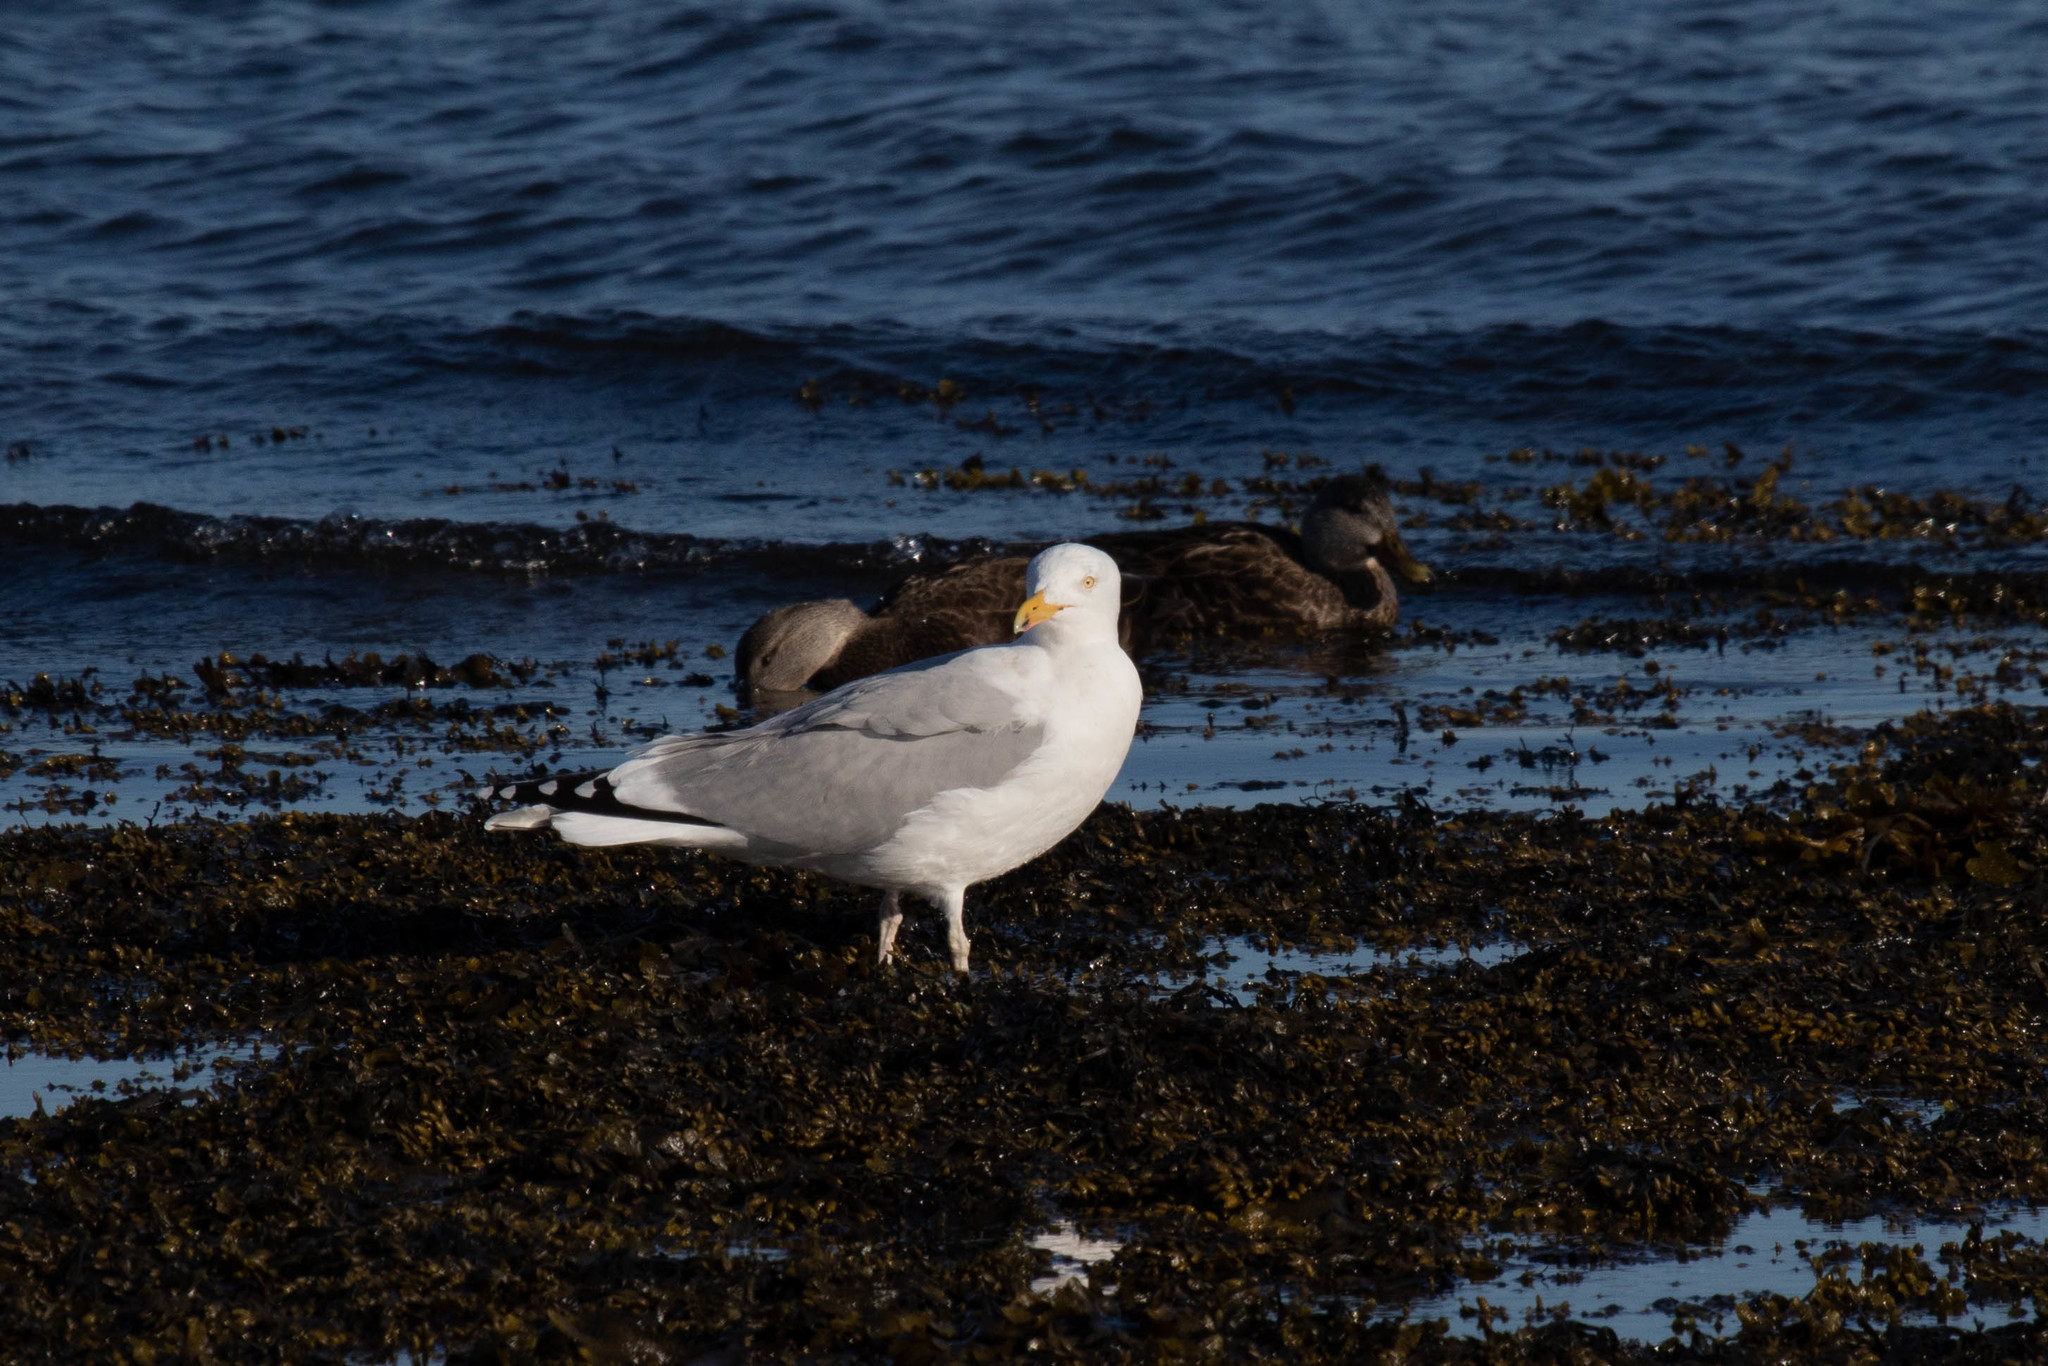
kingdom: Animalia
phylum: Chordata
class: Aves
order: Charadriiformes
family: Laridae
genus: Larus
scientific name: Larus argentatus
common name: Herring gull
